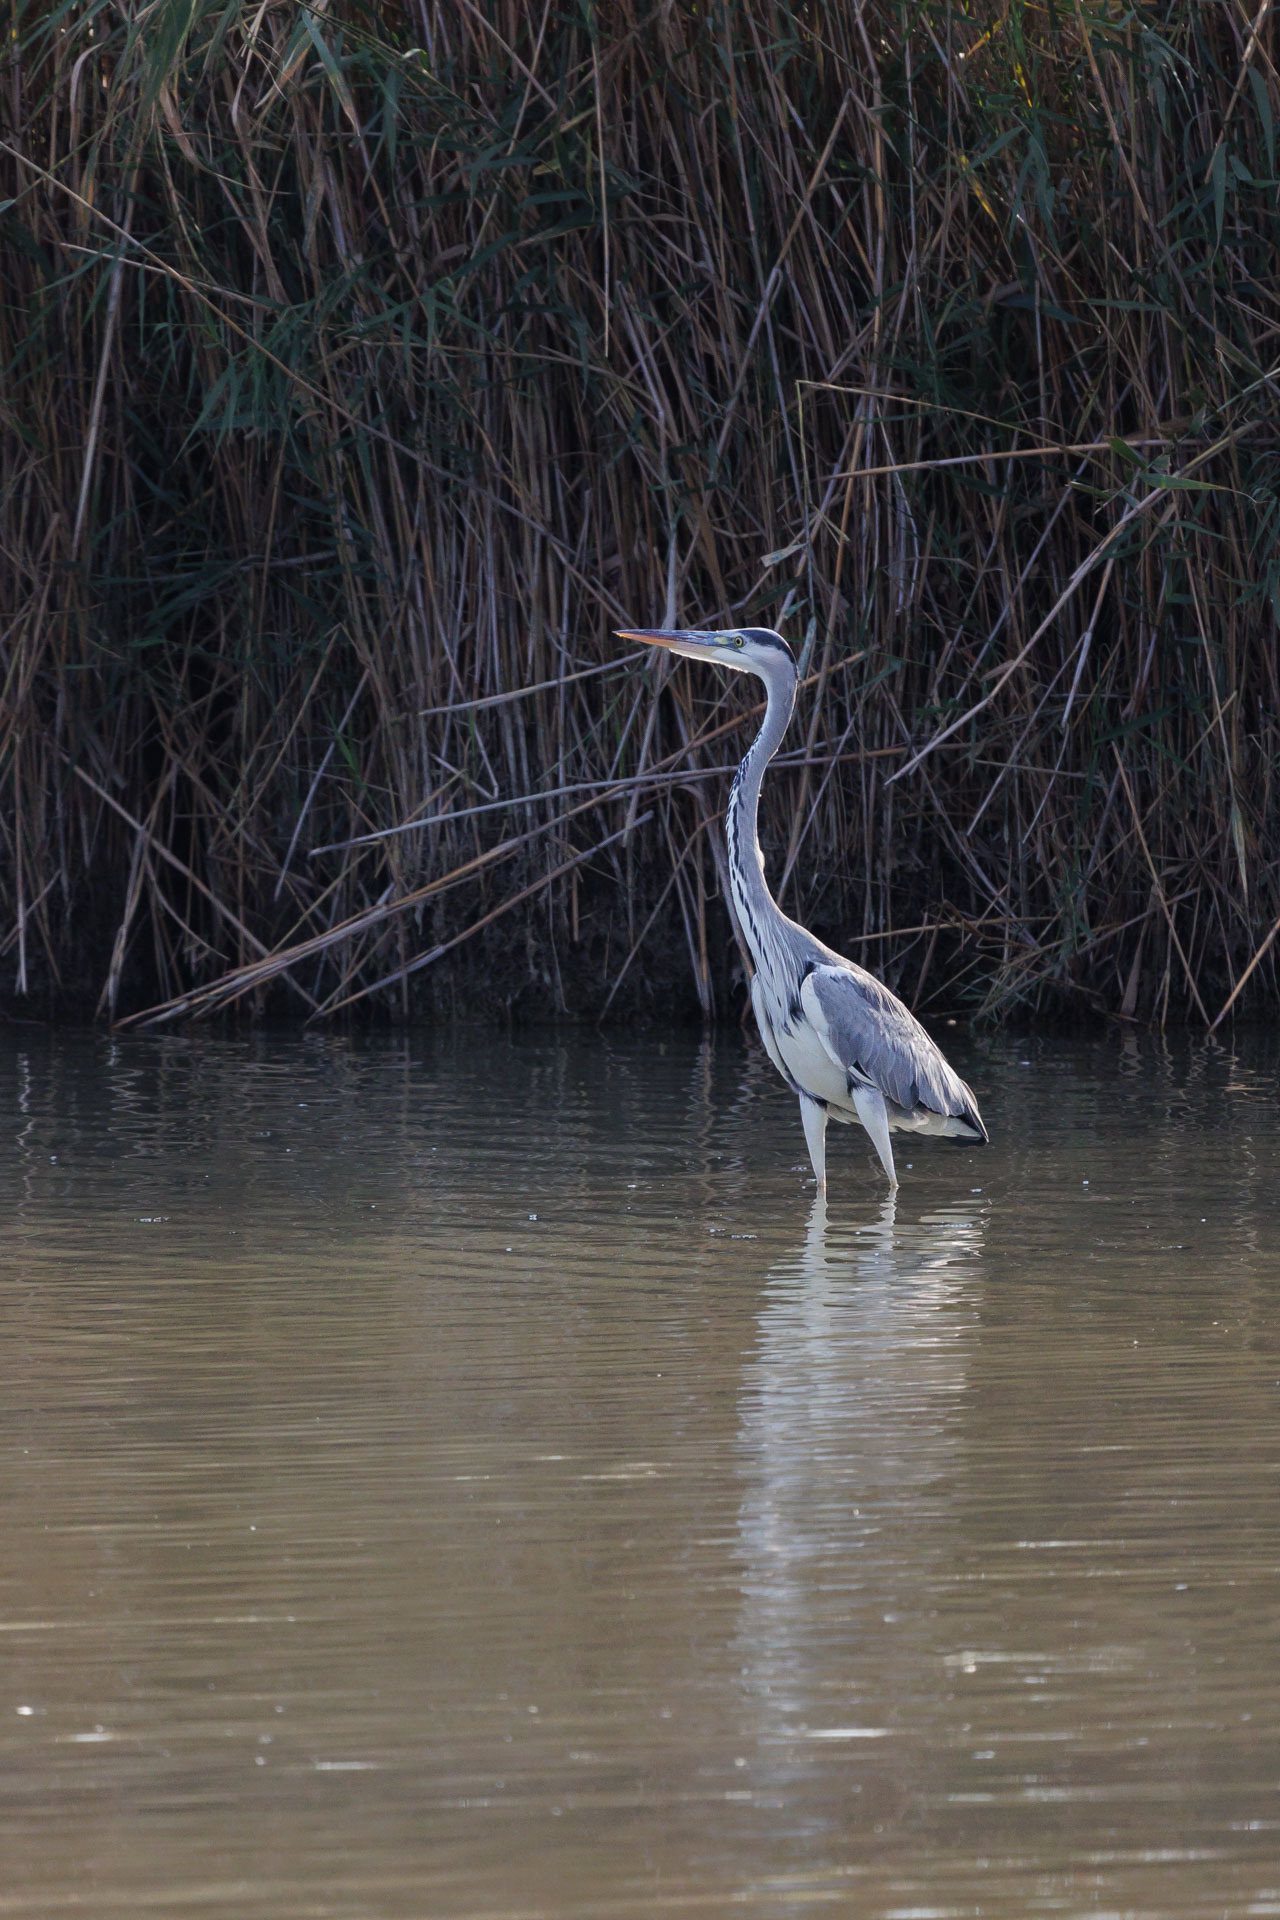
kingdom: Animalia
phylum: Chordata
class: Aves
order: Pelecaniformes
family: Ardeidae
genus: Ardea
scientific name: Ardea cinerea
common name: Grey heron
